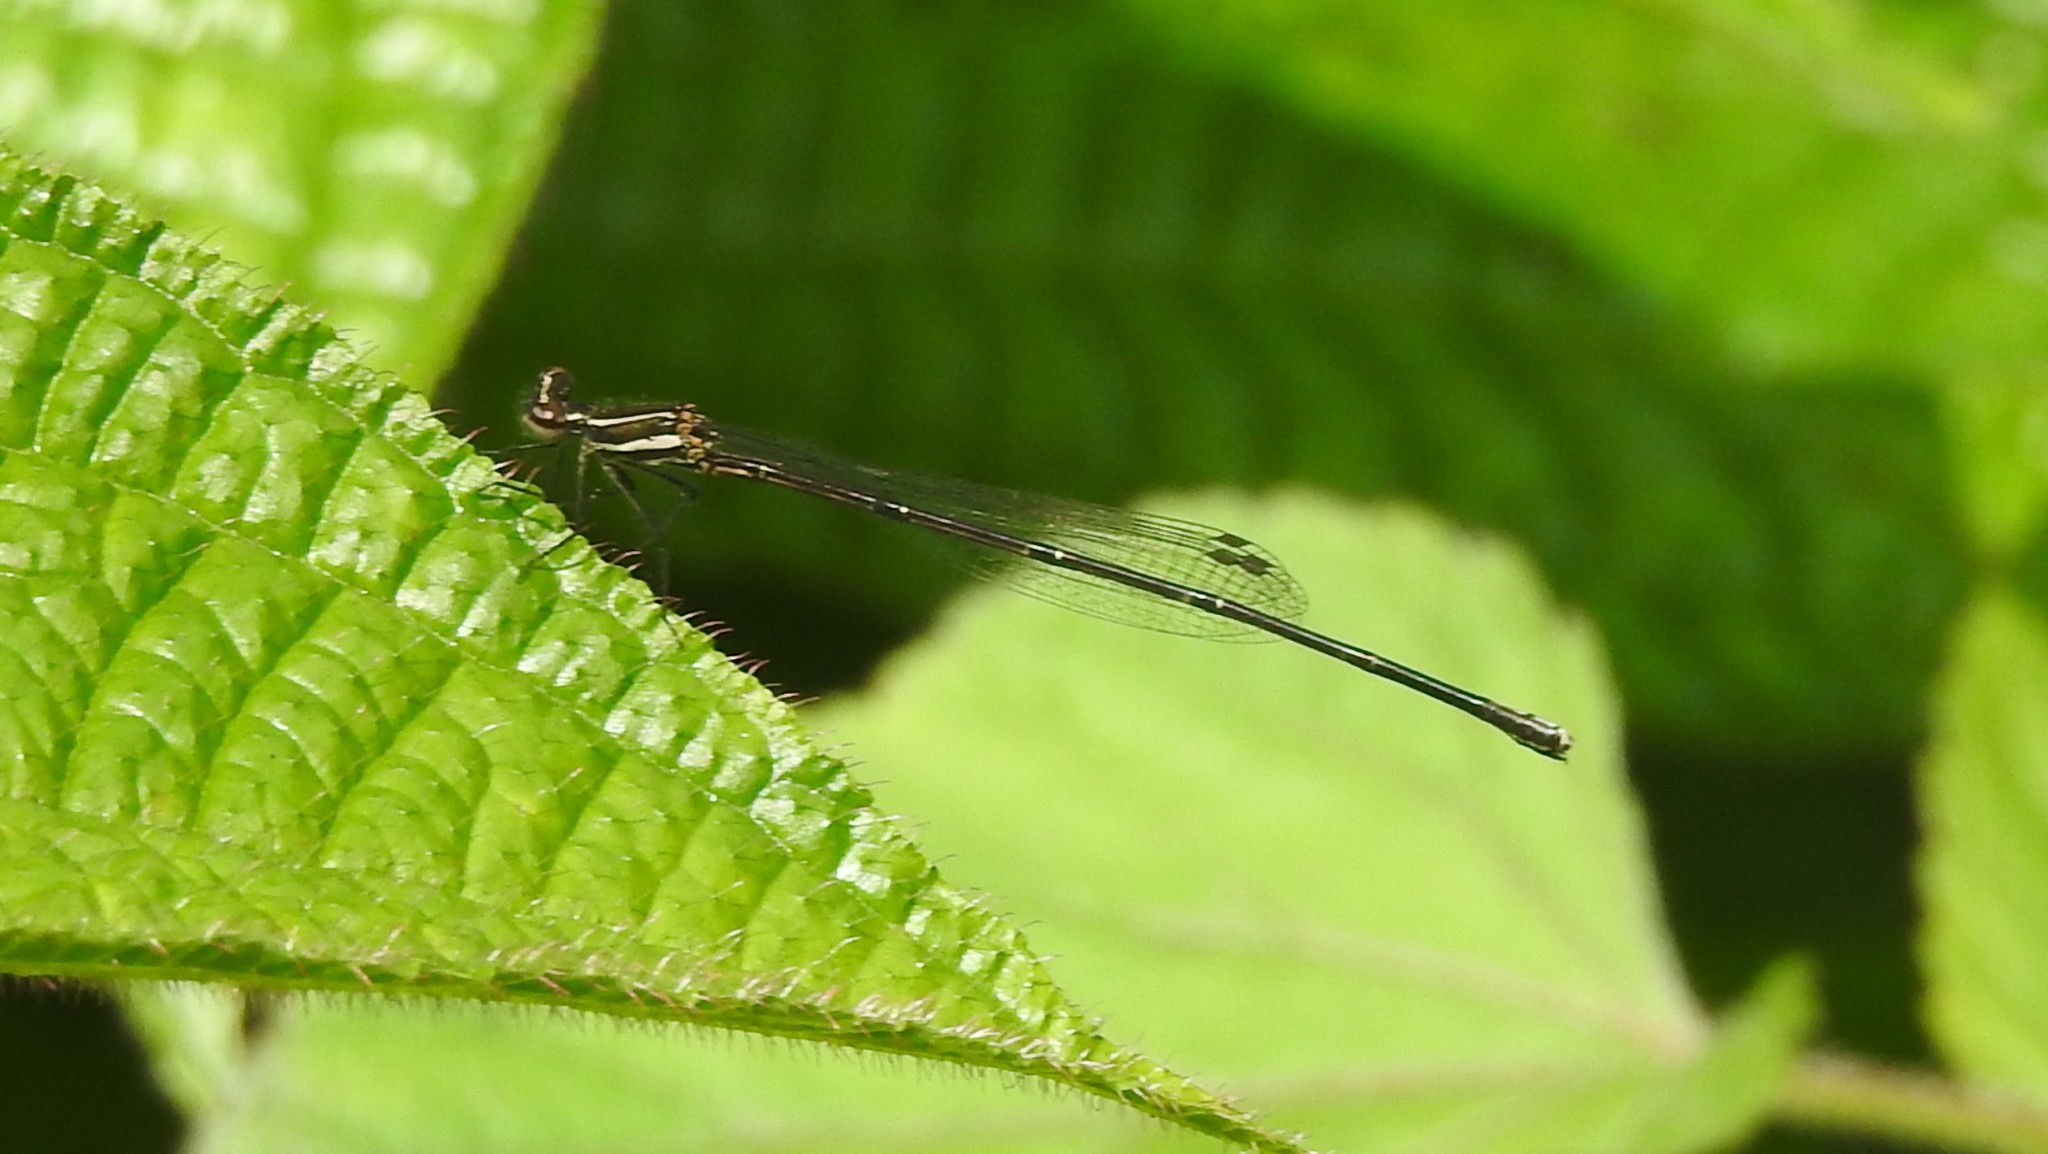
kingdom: Animalia
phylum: Arthropoda
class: Insecta
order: Odonata
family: Platycnemididae
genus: Prodasineura
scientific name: Prodasineura verticalis
